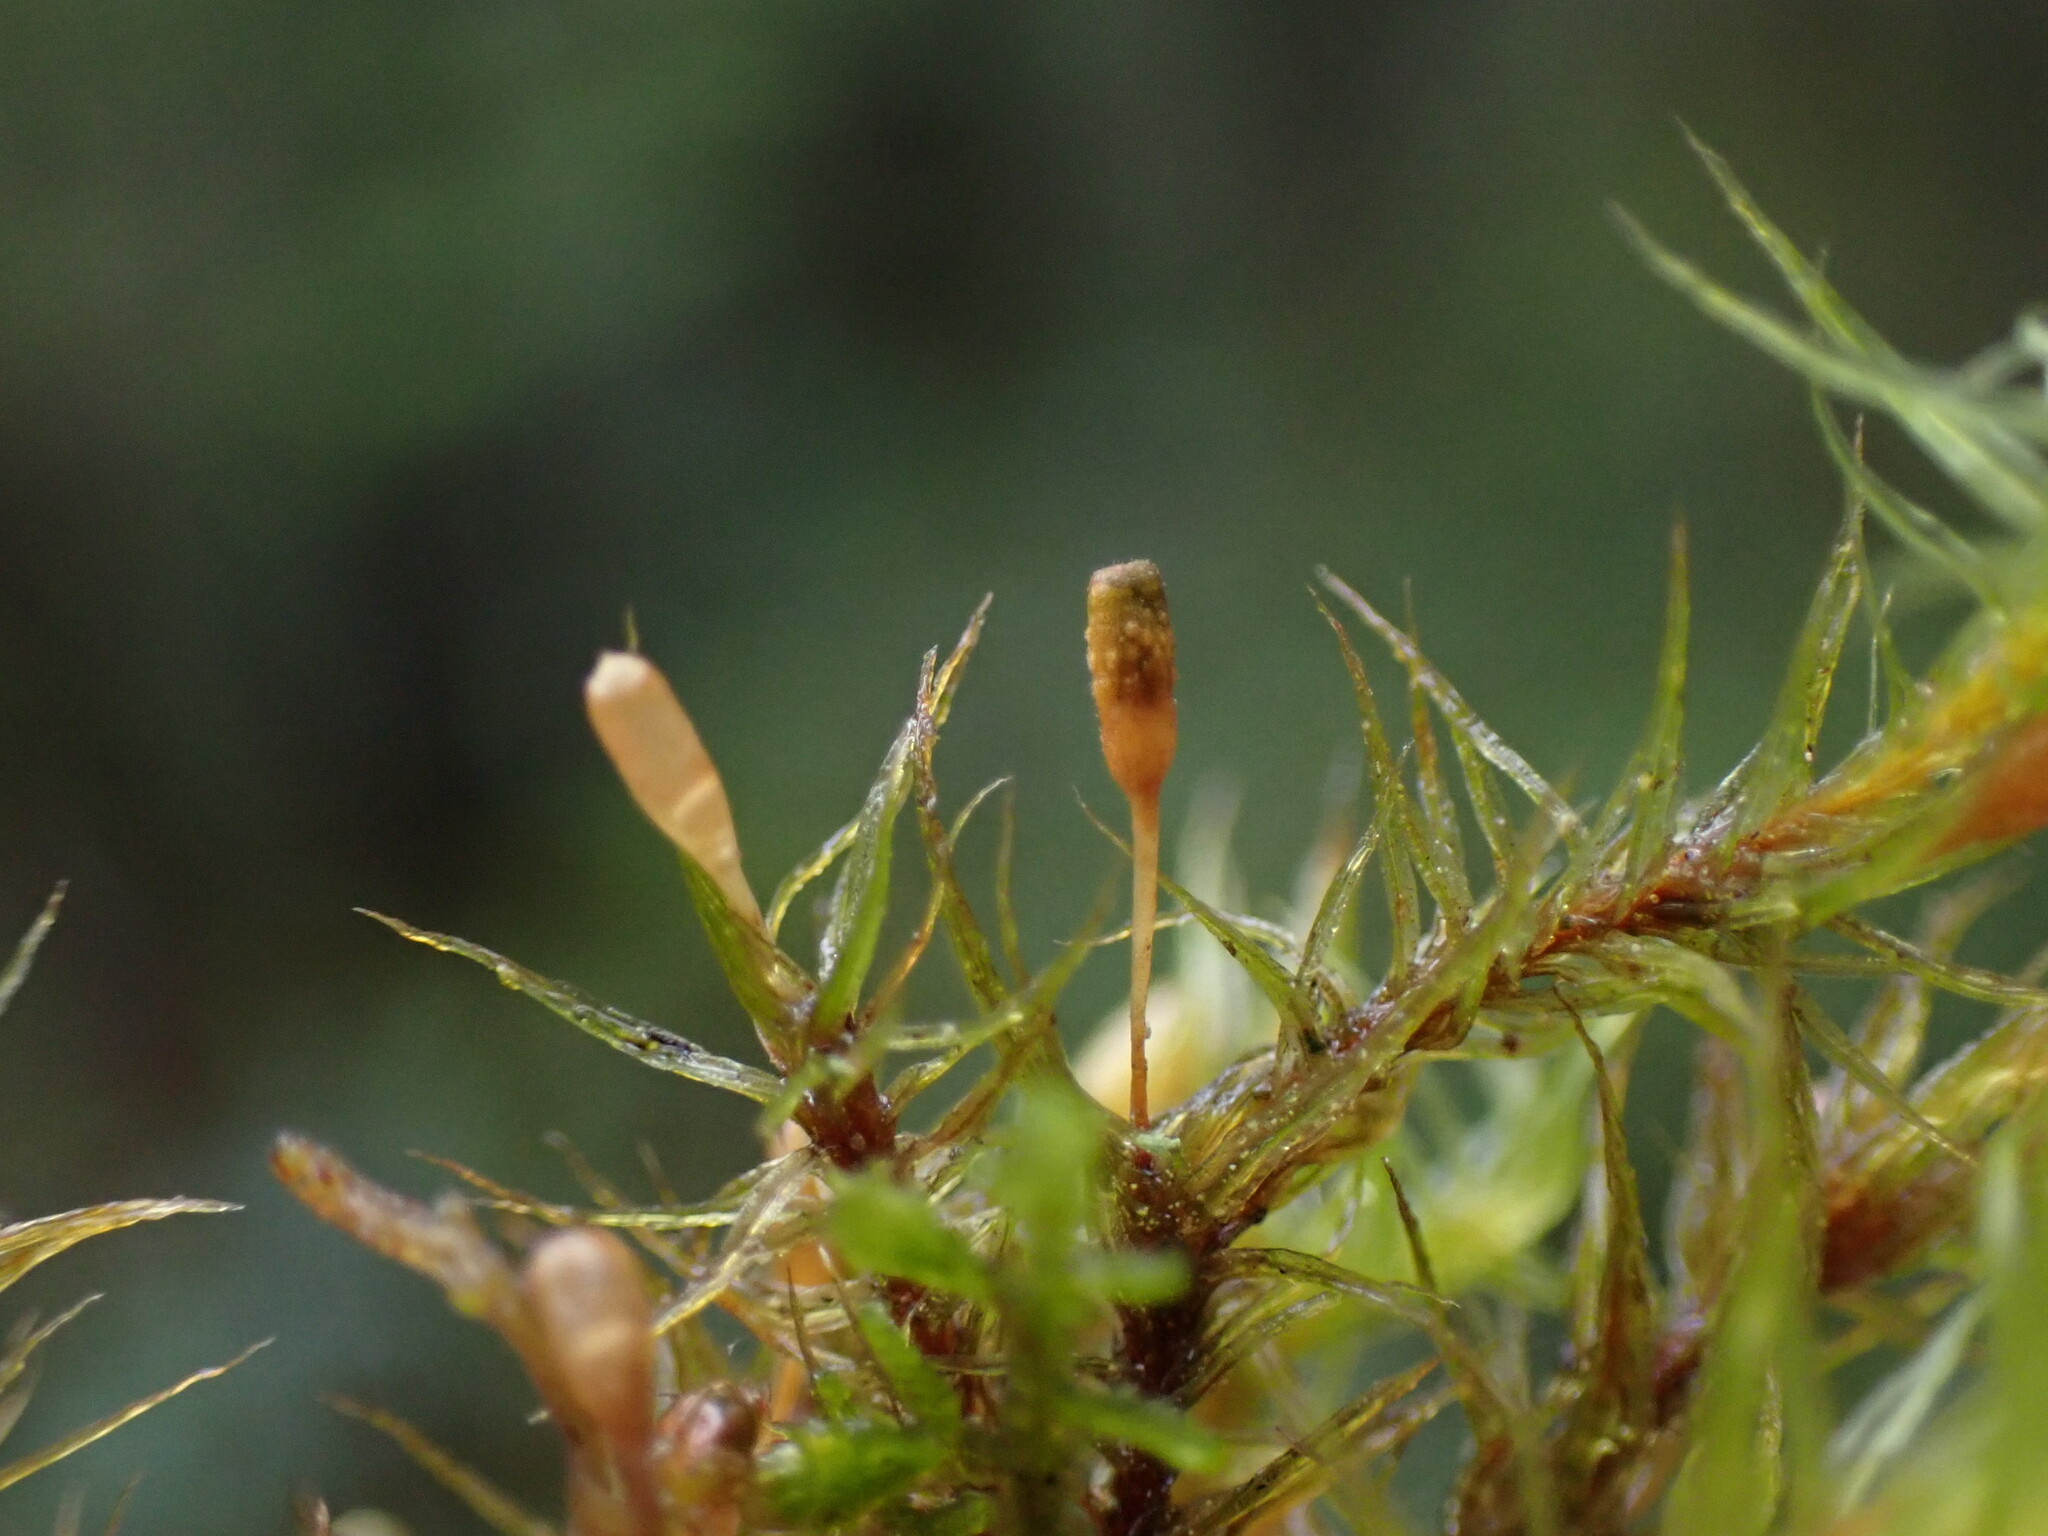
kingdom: Plantae
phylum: Bryophyta
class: Bryopsida
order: Orthotrichales
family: Orthotrichaceae
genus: Pulvigera
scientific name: Pulvigera pringlei
